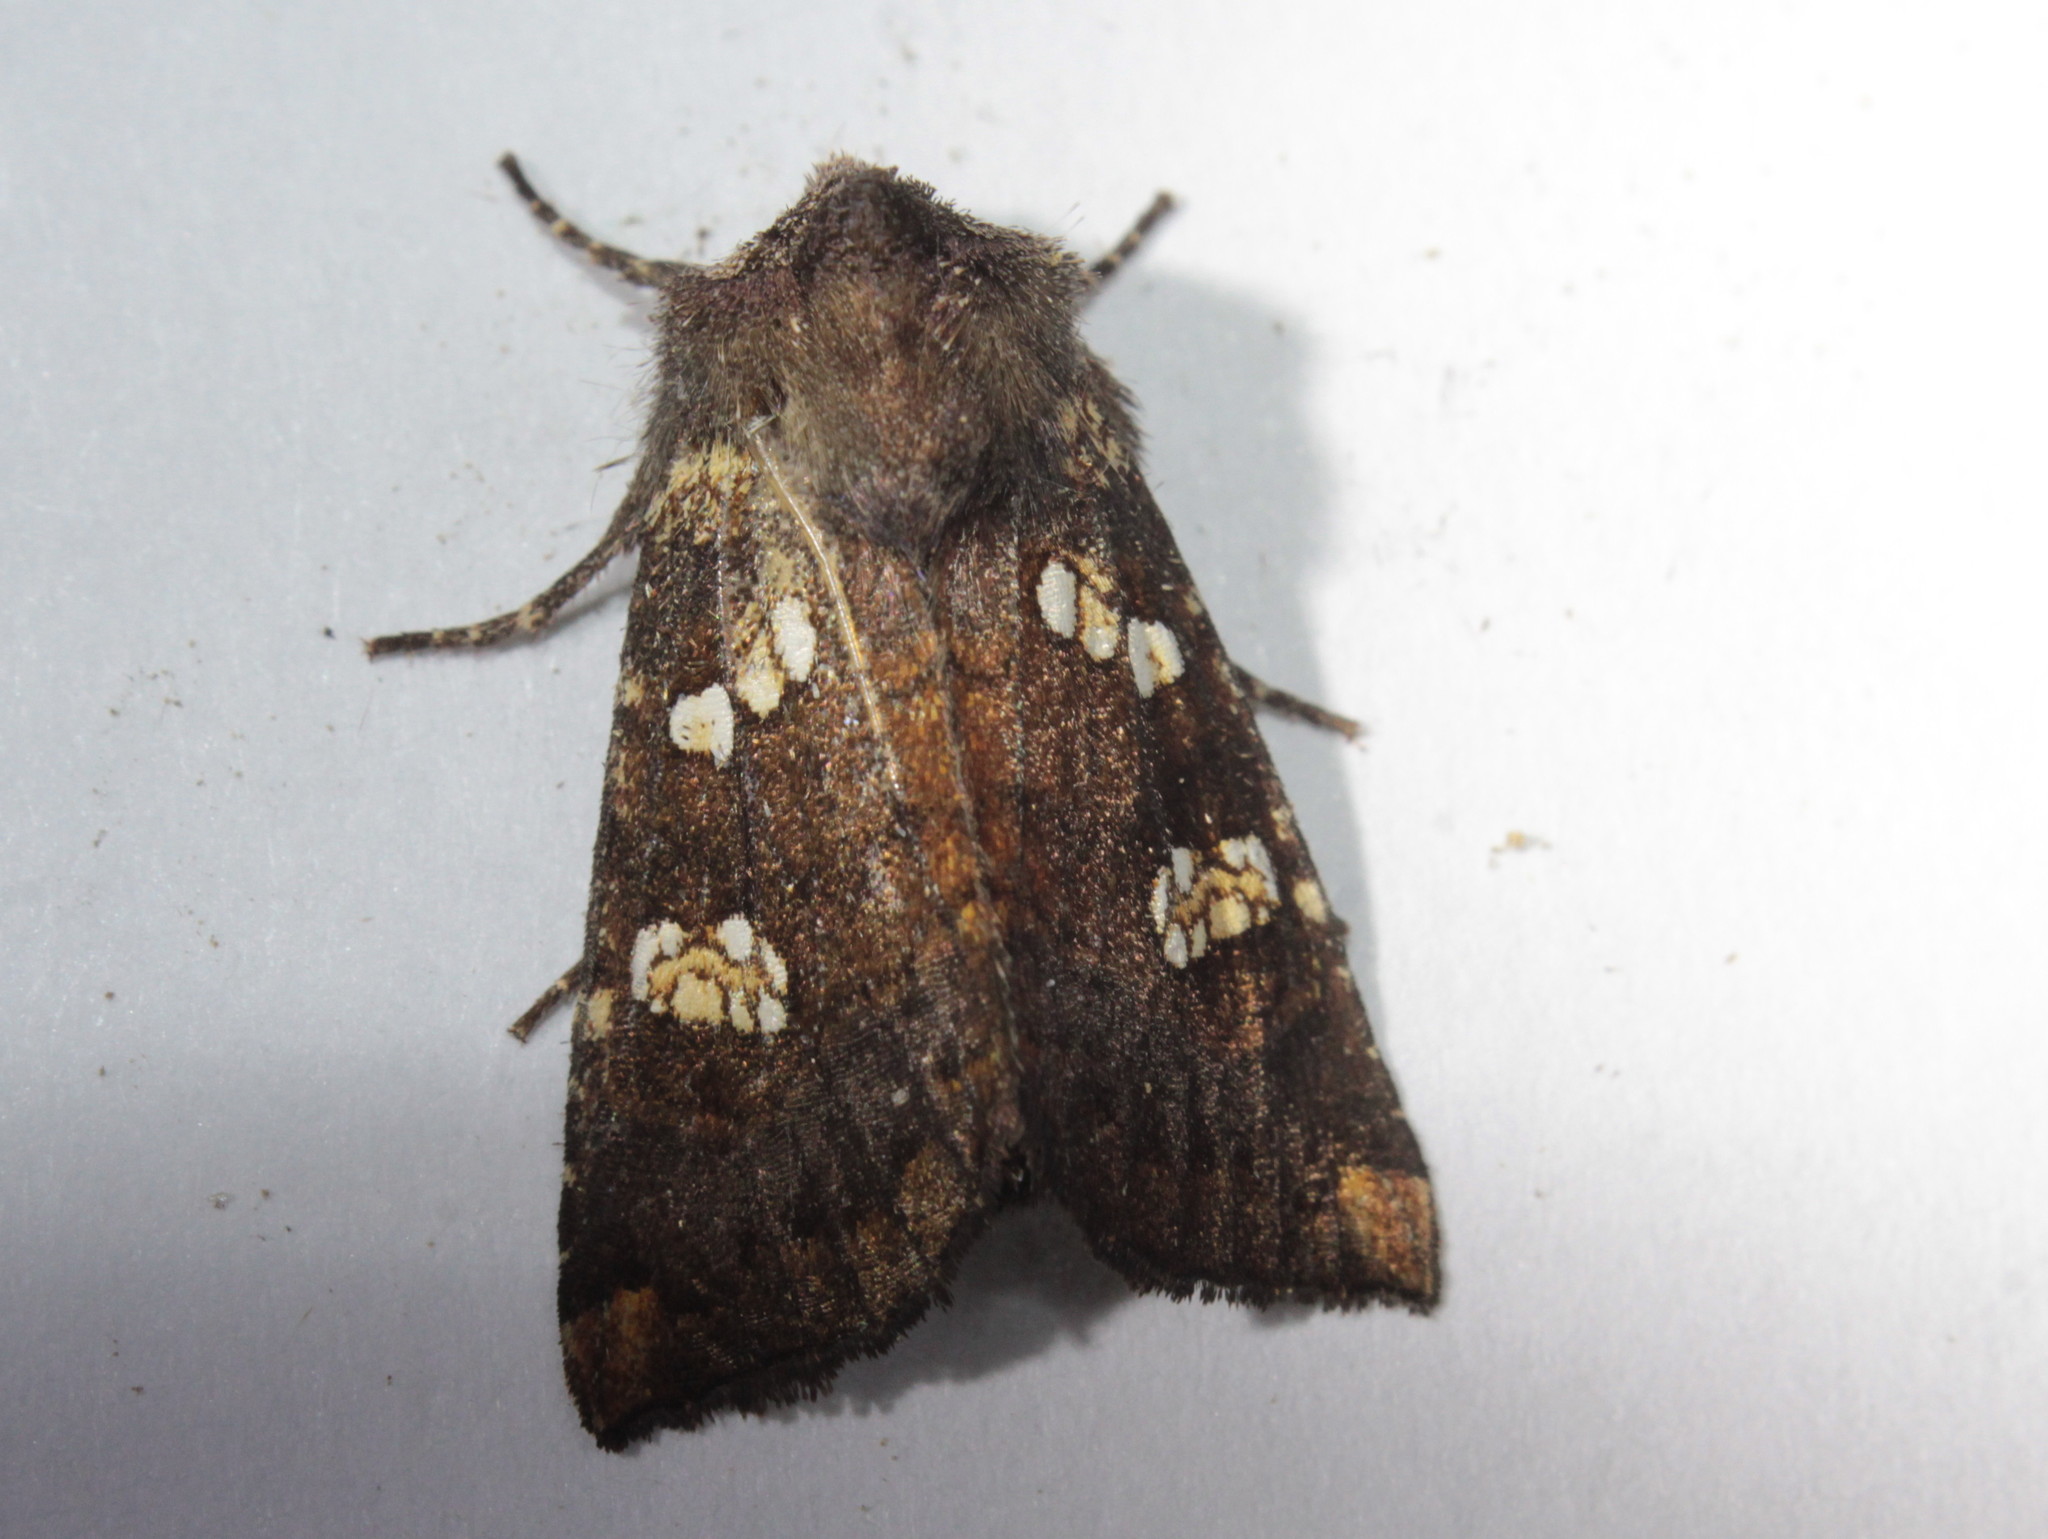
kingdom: Animalia
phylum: Arthropoda
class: Insecta
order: Lepidoptera
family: Noctuidae
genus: Papaipema
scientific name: Papaipema unimoda
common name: Meadow rue borer moth
